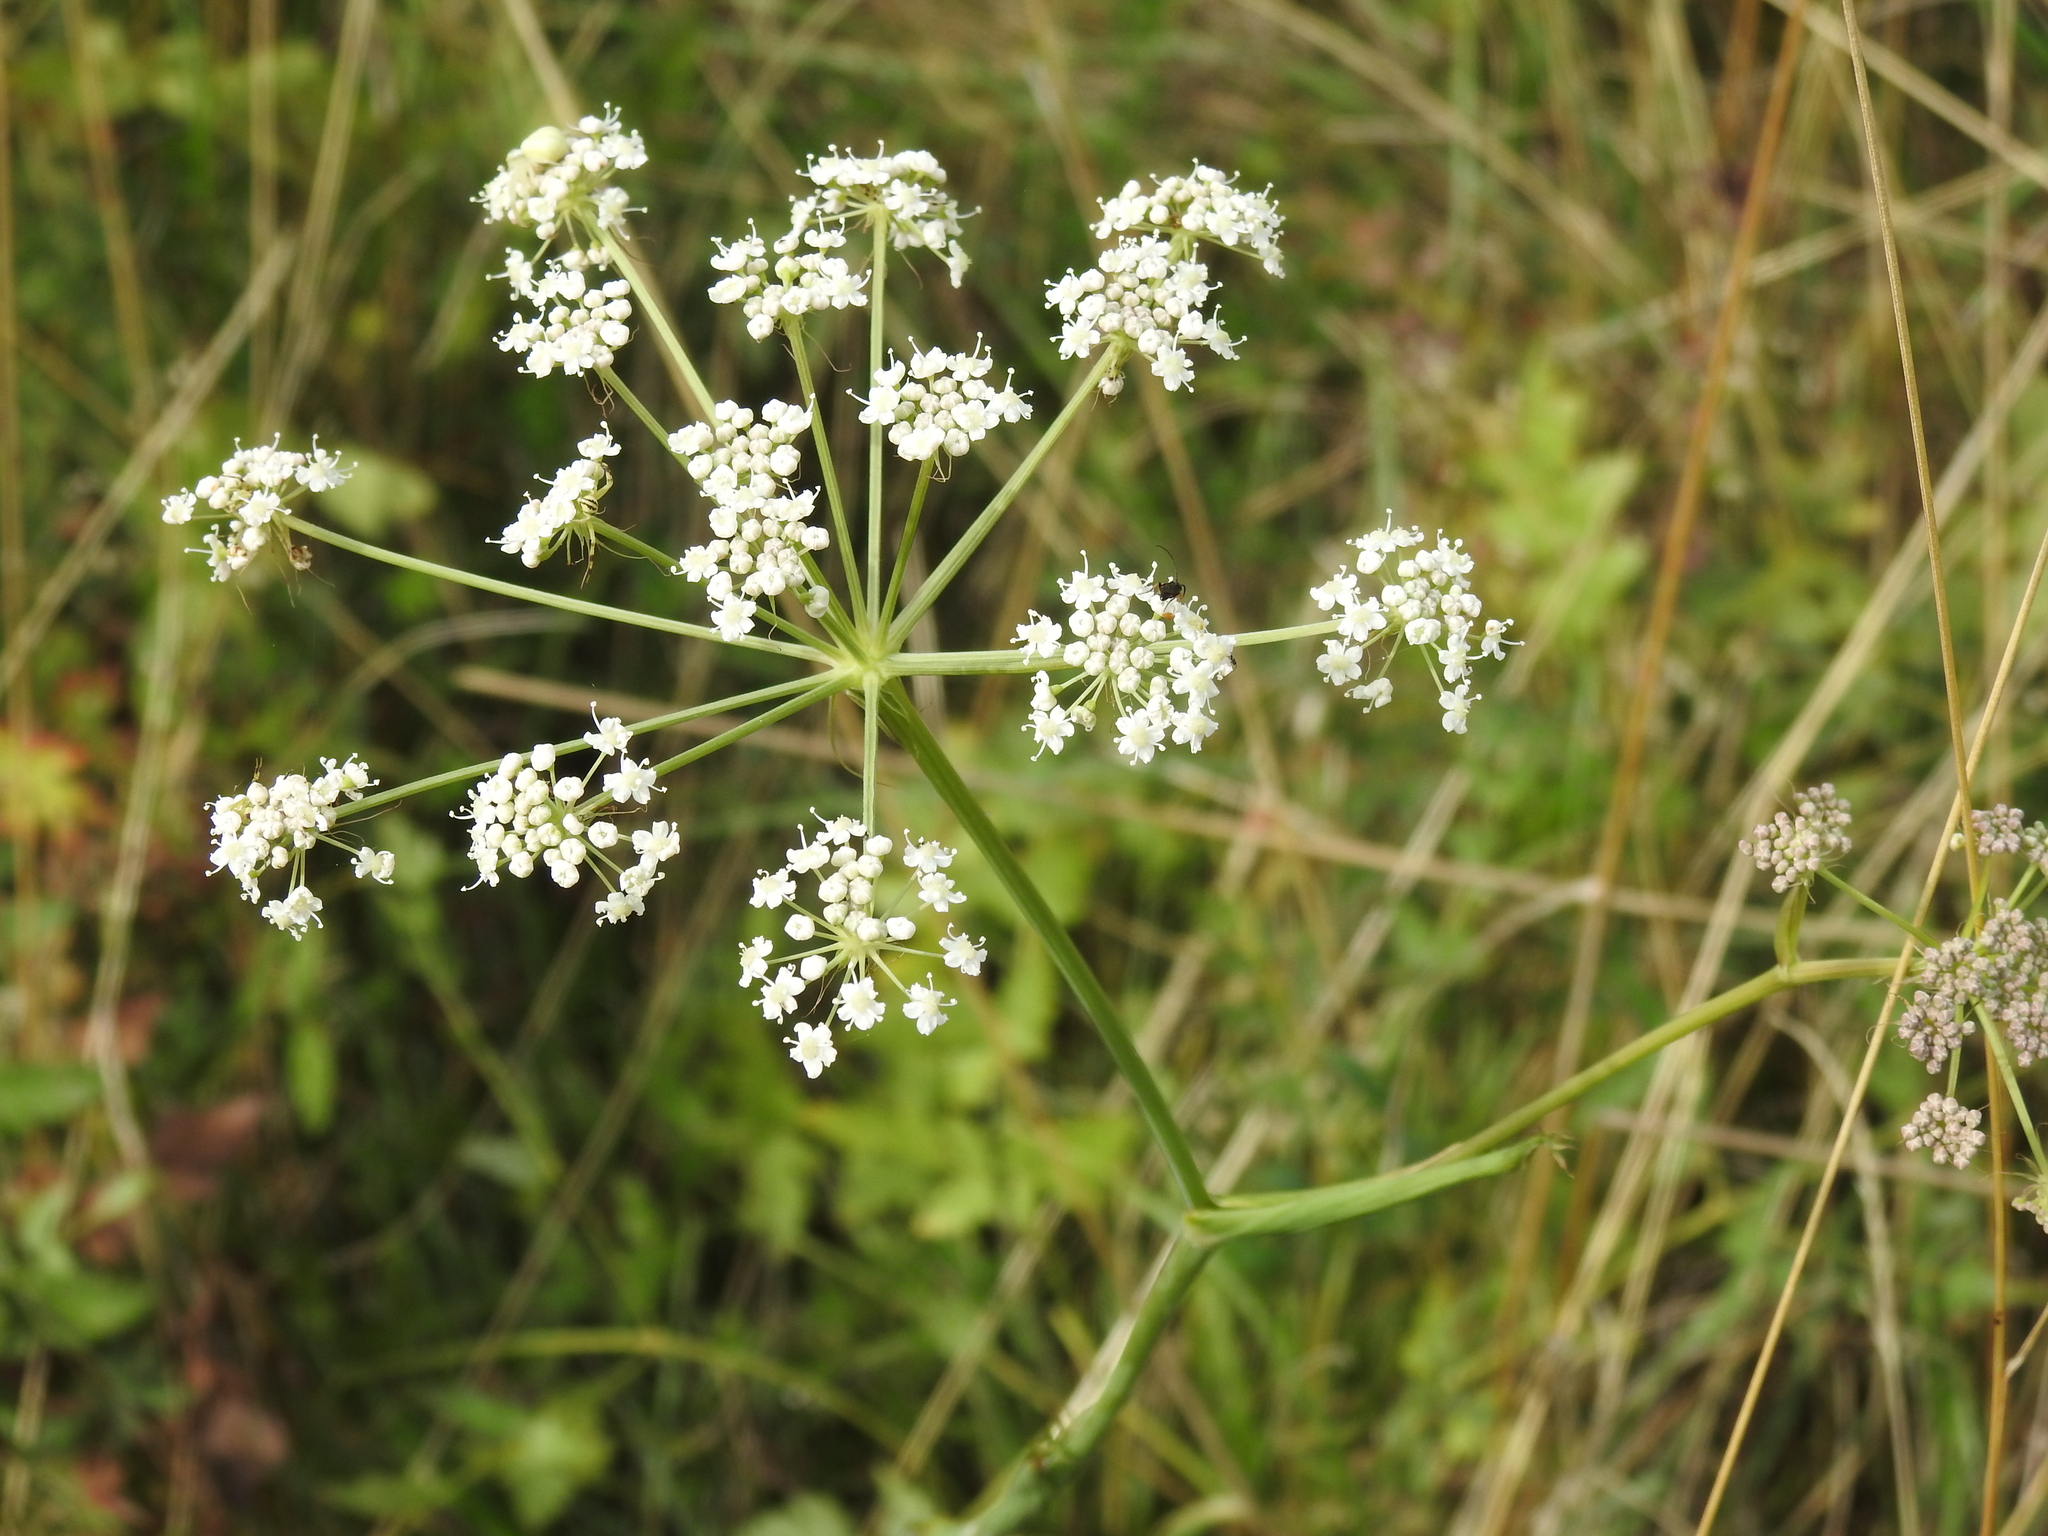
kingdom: Plantae
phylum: Tracheophyta
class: Magnoliopsida
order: Apiales
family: Apiaceae
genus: Cervaria
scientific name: Cervaria rivini
